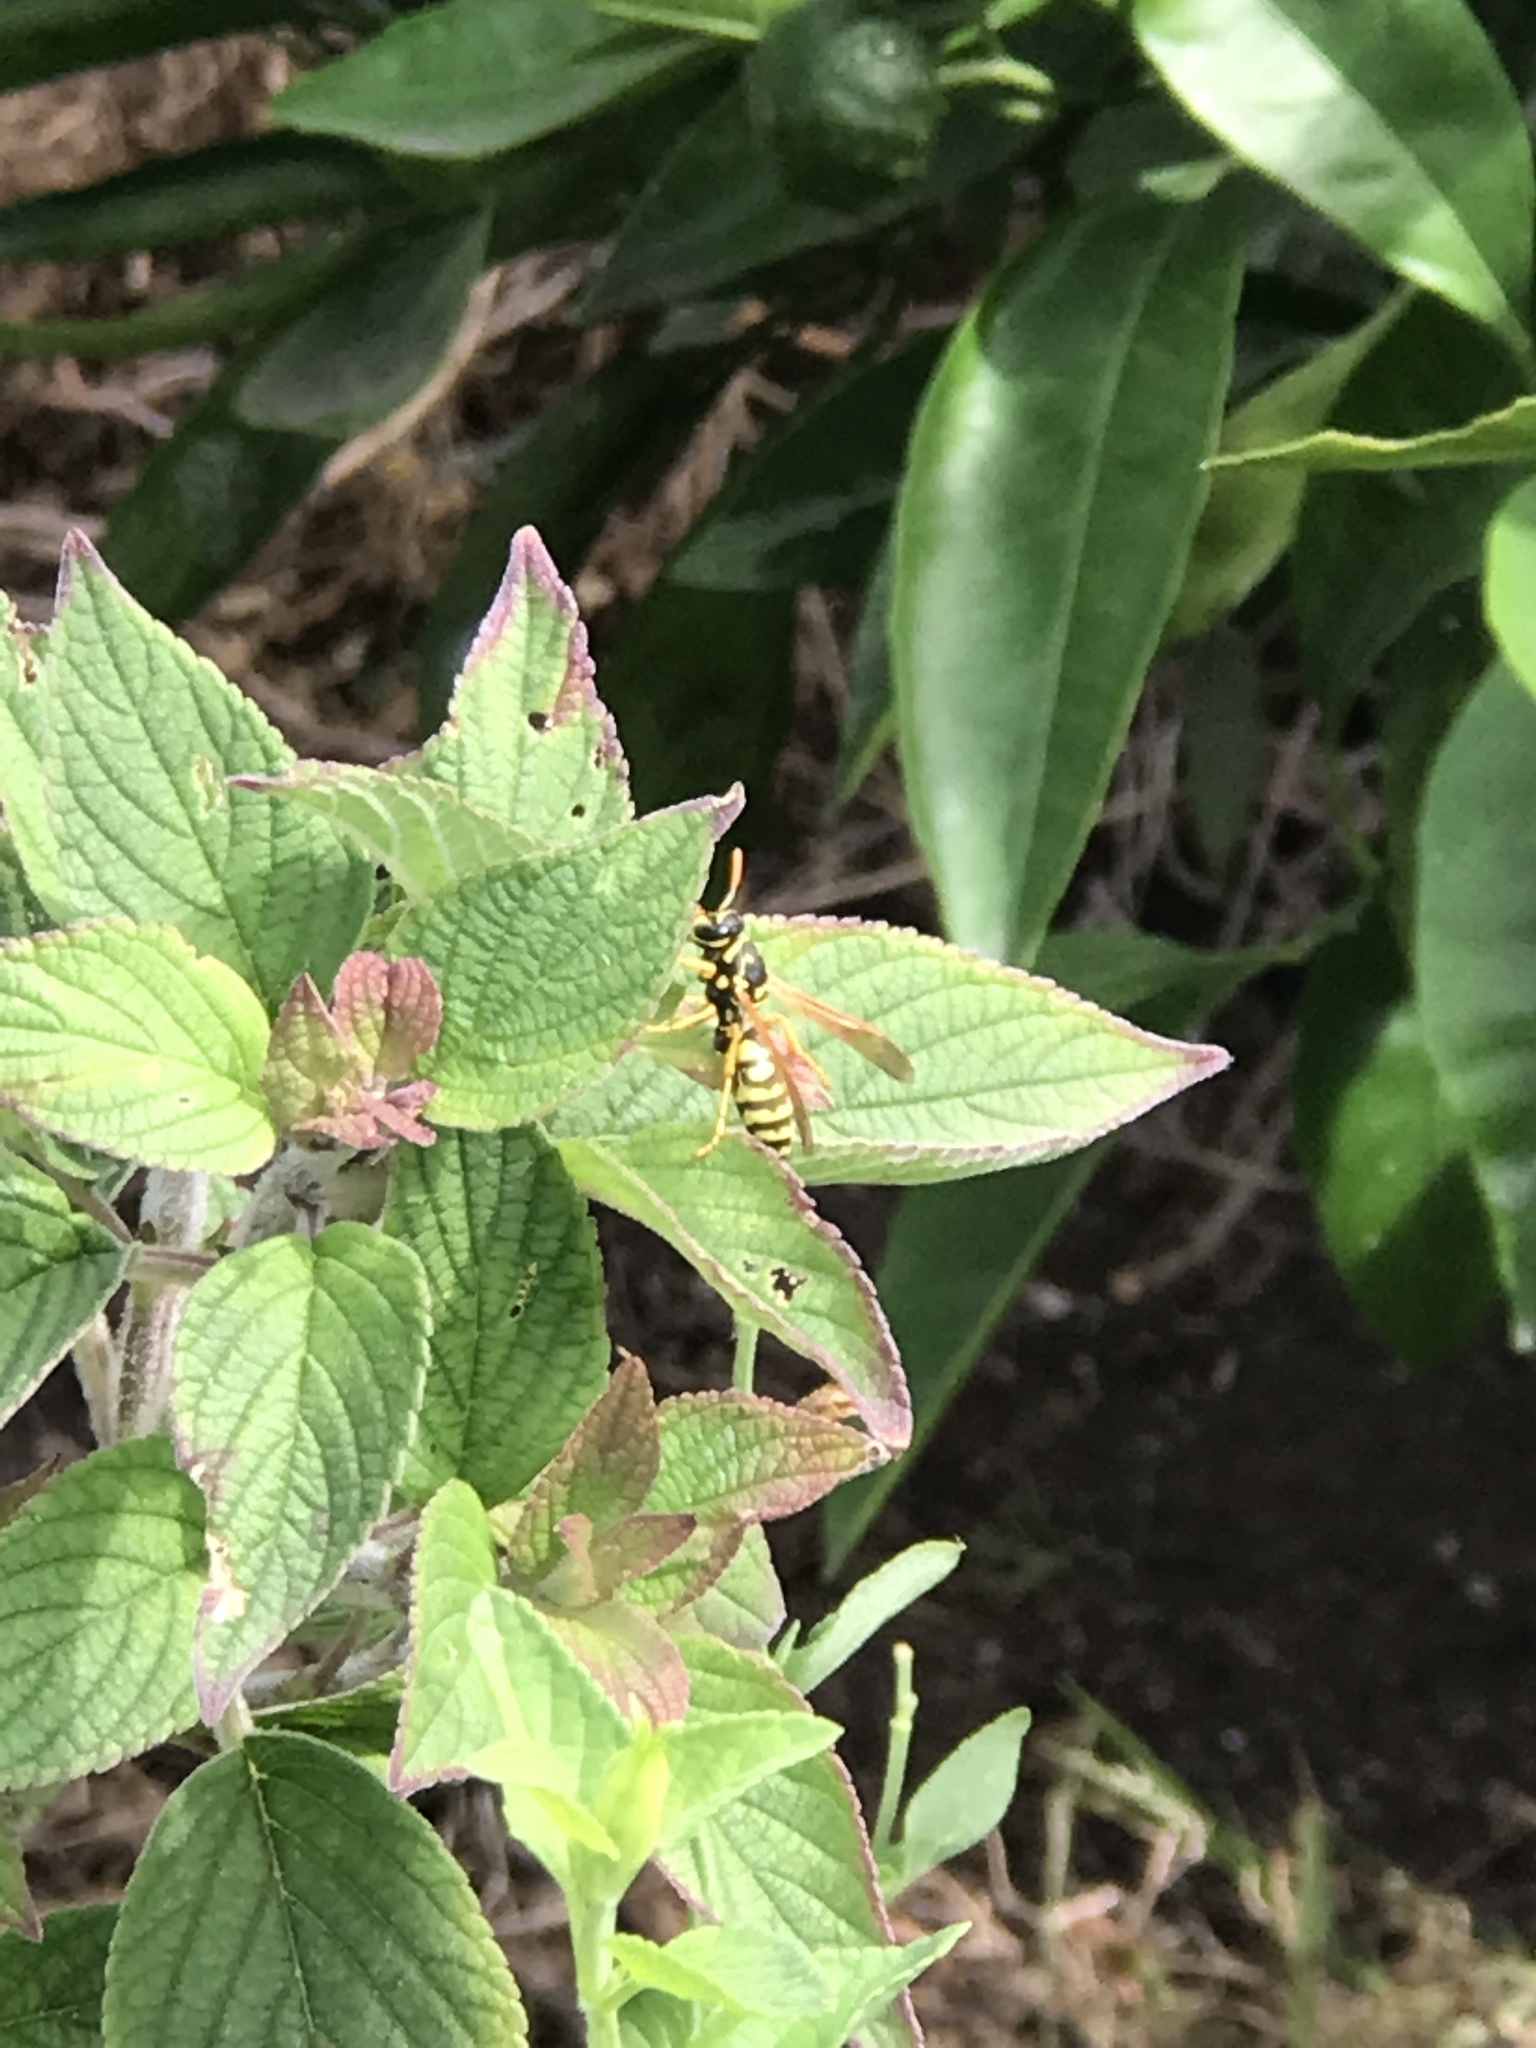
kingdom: Animalia
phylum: Arthropoda
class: Insecta
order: Hymenoptera
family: Eumenidae
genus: Polistes
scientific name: Polistes dominula
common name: Paper wasp
